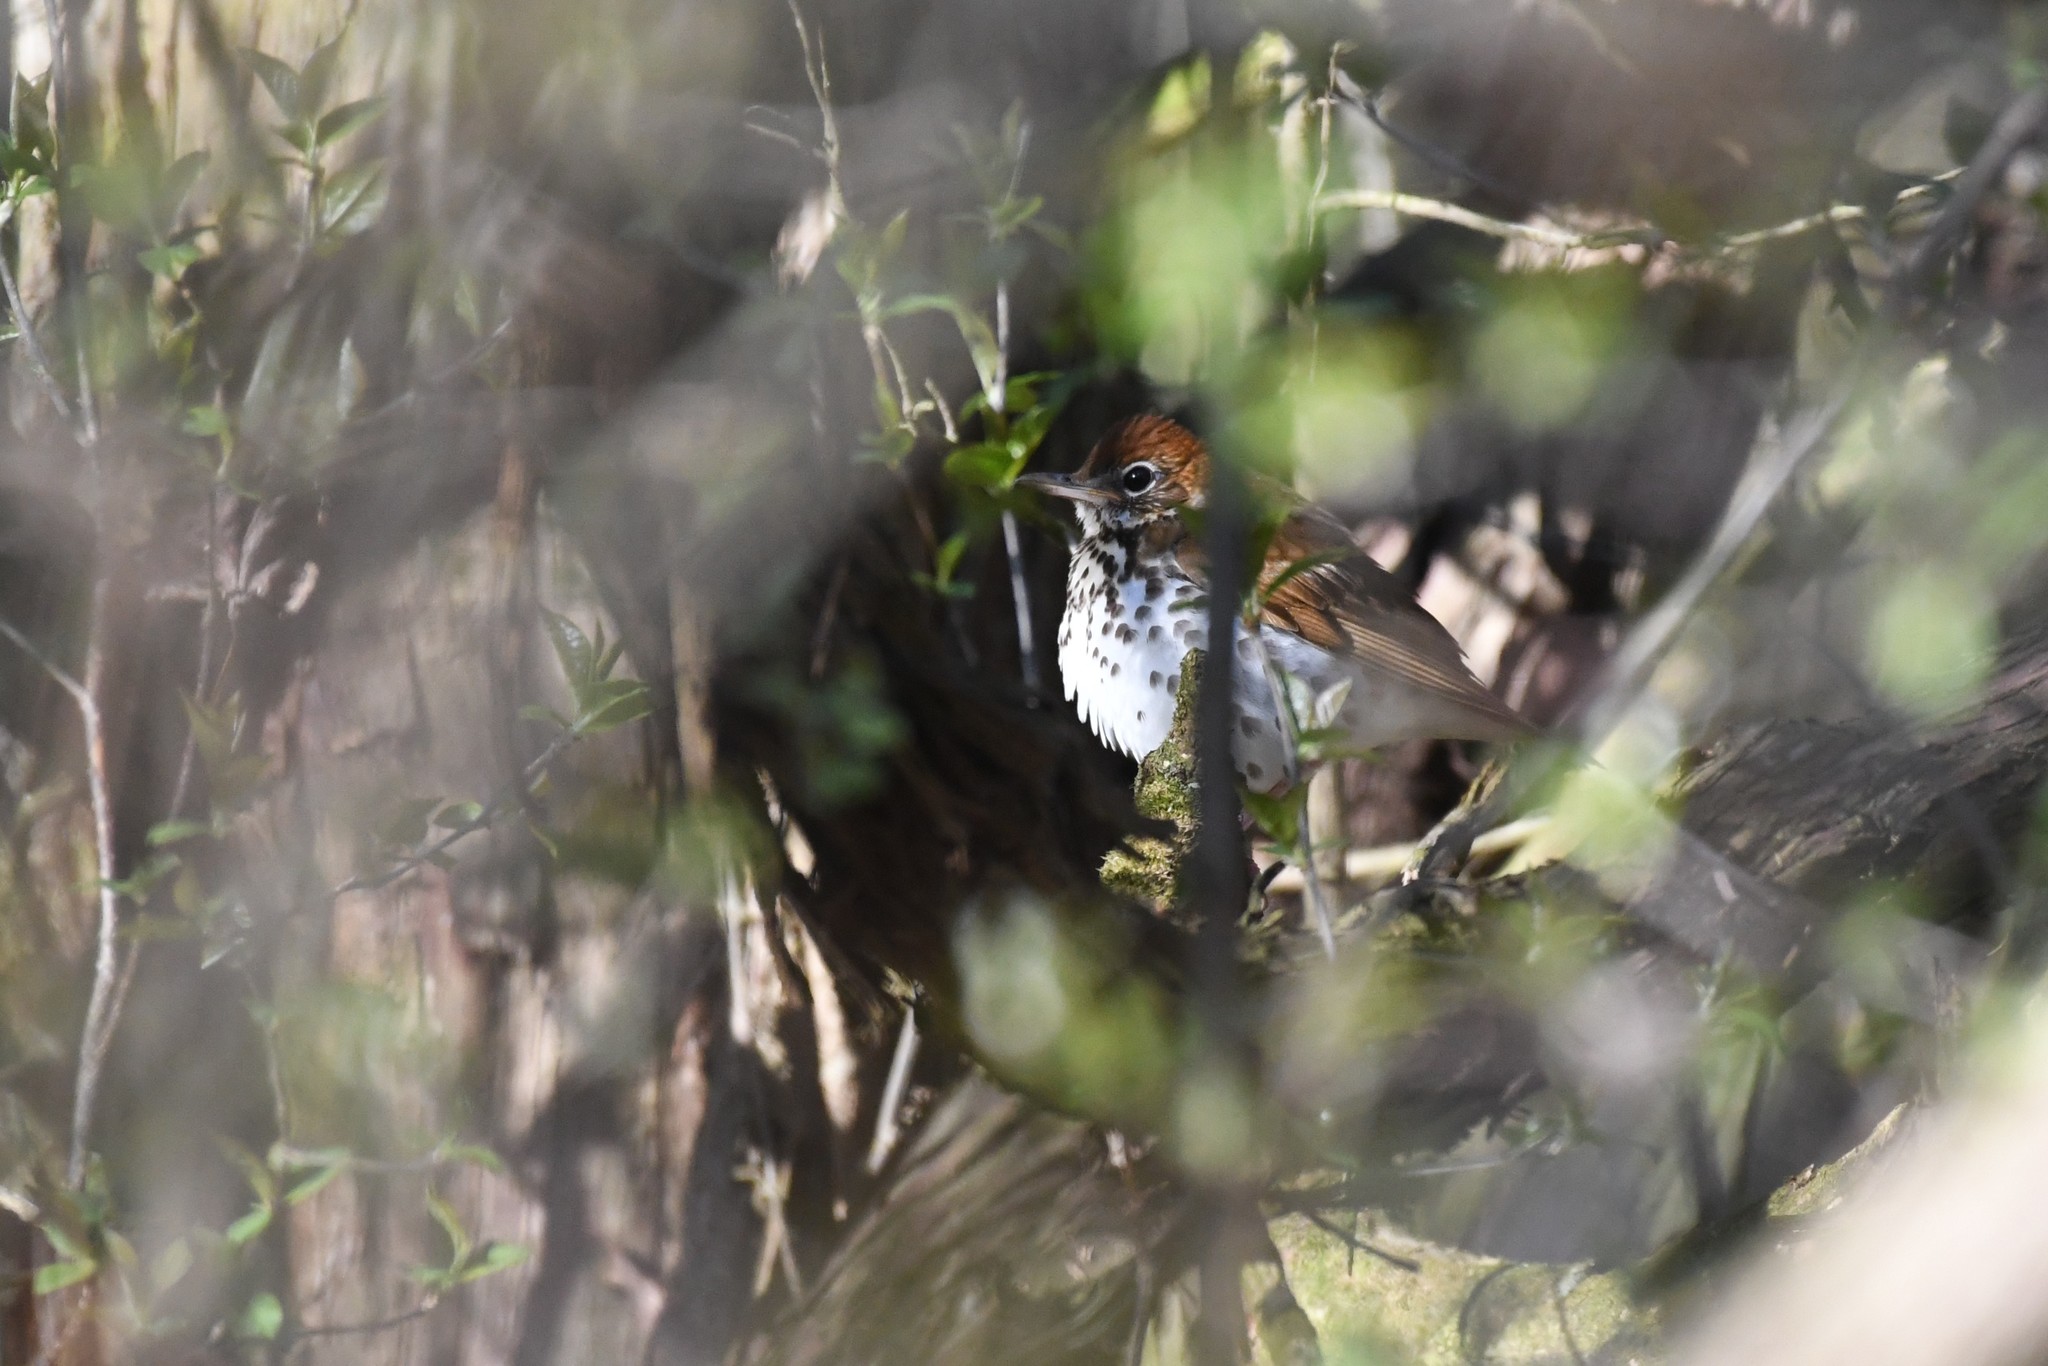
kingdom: Animalia
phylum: Chordata
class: Aves
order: Passeriformes
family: Turdidae
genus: Hylocichla
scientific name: Hylocichla mustelina
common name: Wood thrush
